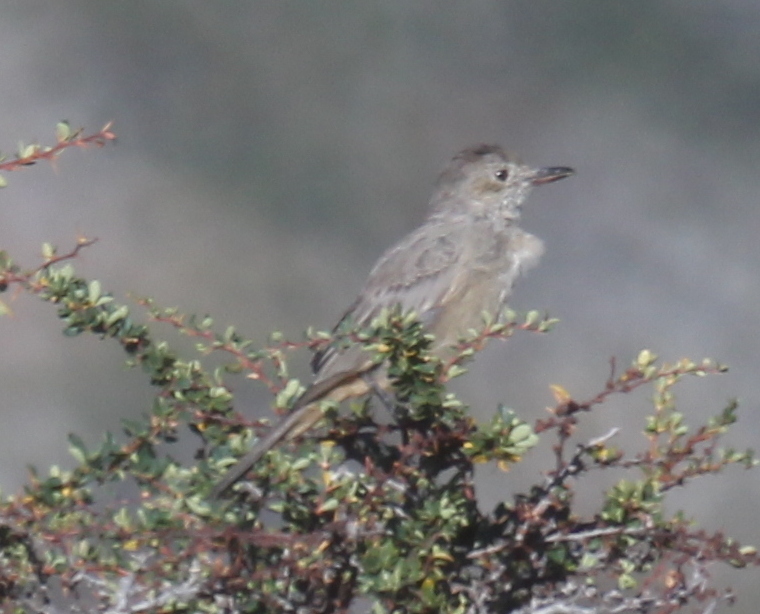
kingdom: Animalia
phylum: Chordata
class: Aves
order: Passeriformes
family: Tyrannidae
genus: Agriornis
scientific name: Agriornis lividus
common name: Great shrike-tyrant
